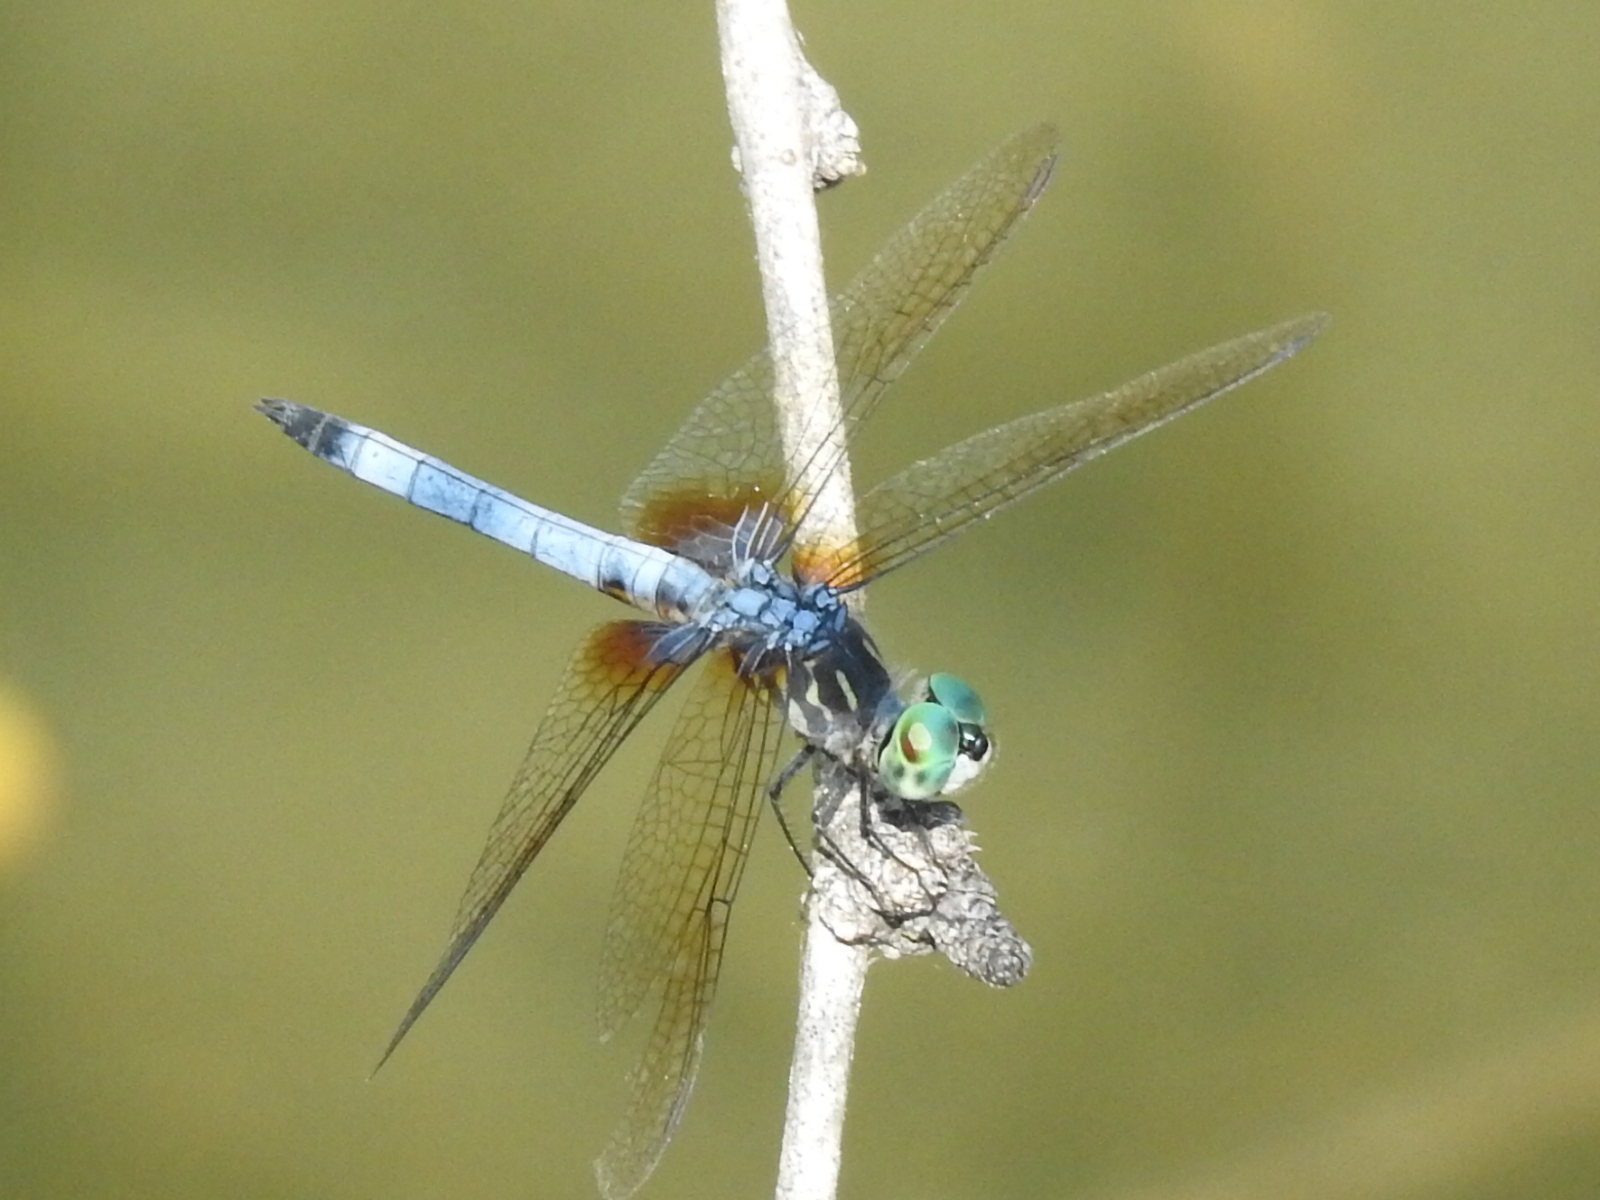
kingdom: Animalia
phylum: Arthropoda
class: Insecta
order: Odonata
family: Libellulidae
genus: Pachydiplax
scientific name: Pachydiplax longipennis
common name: Blue dasher
